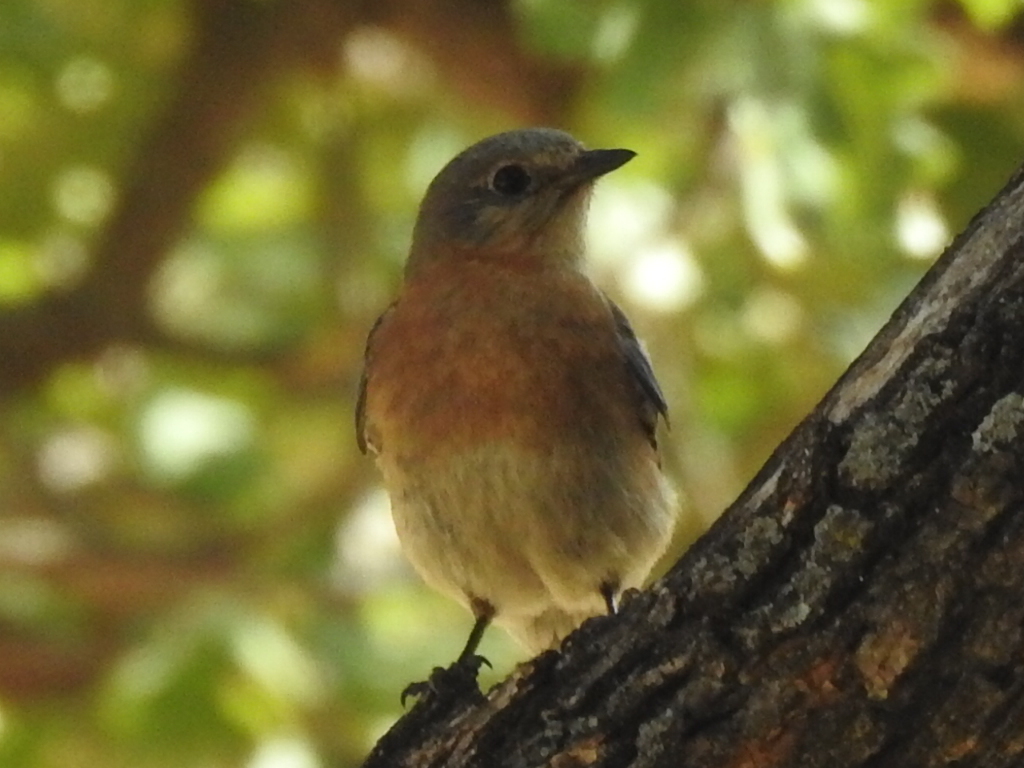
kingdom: Animalia
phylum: Chordata
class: Aves
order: Passeriformes
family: Turdidae
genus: Sialia
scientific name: Sialia sialis
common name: Eastern bluebird
